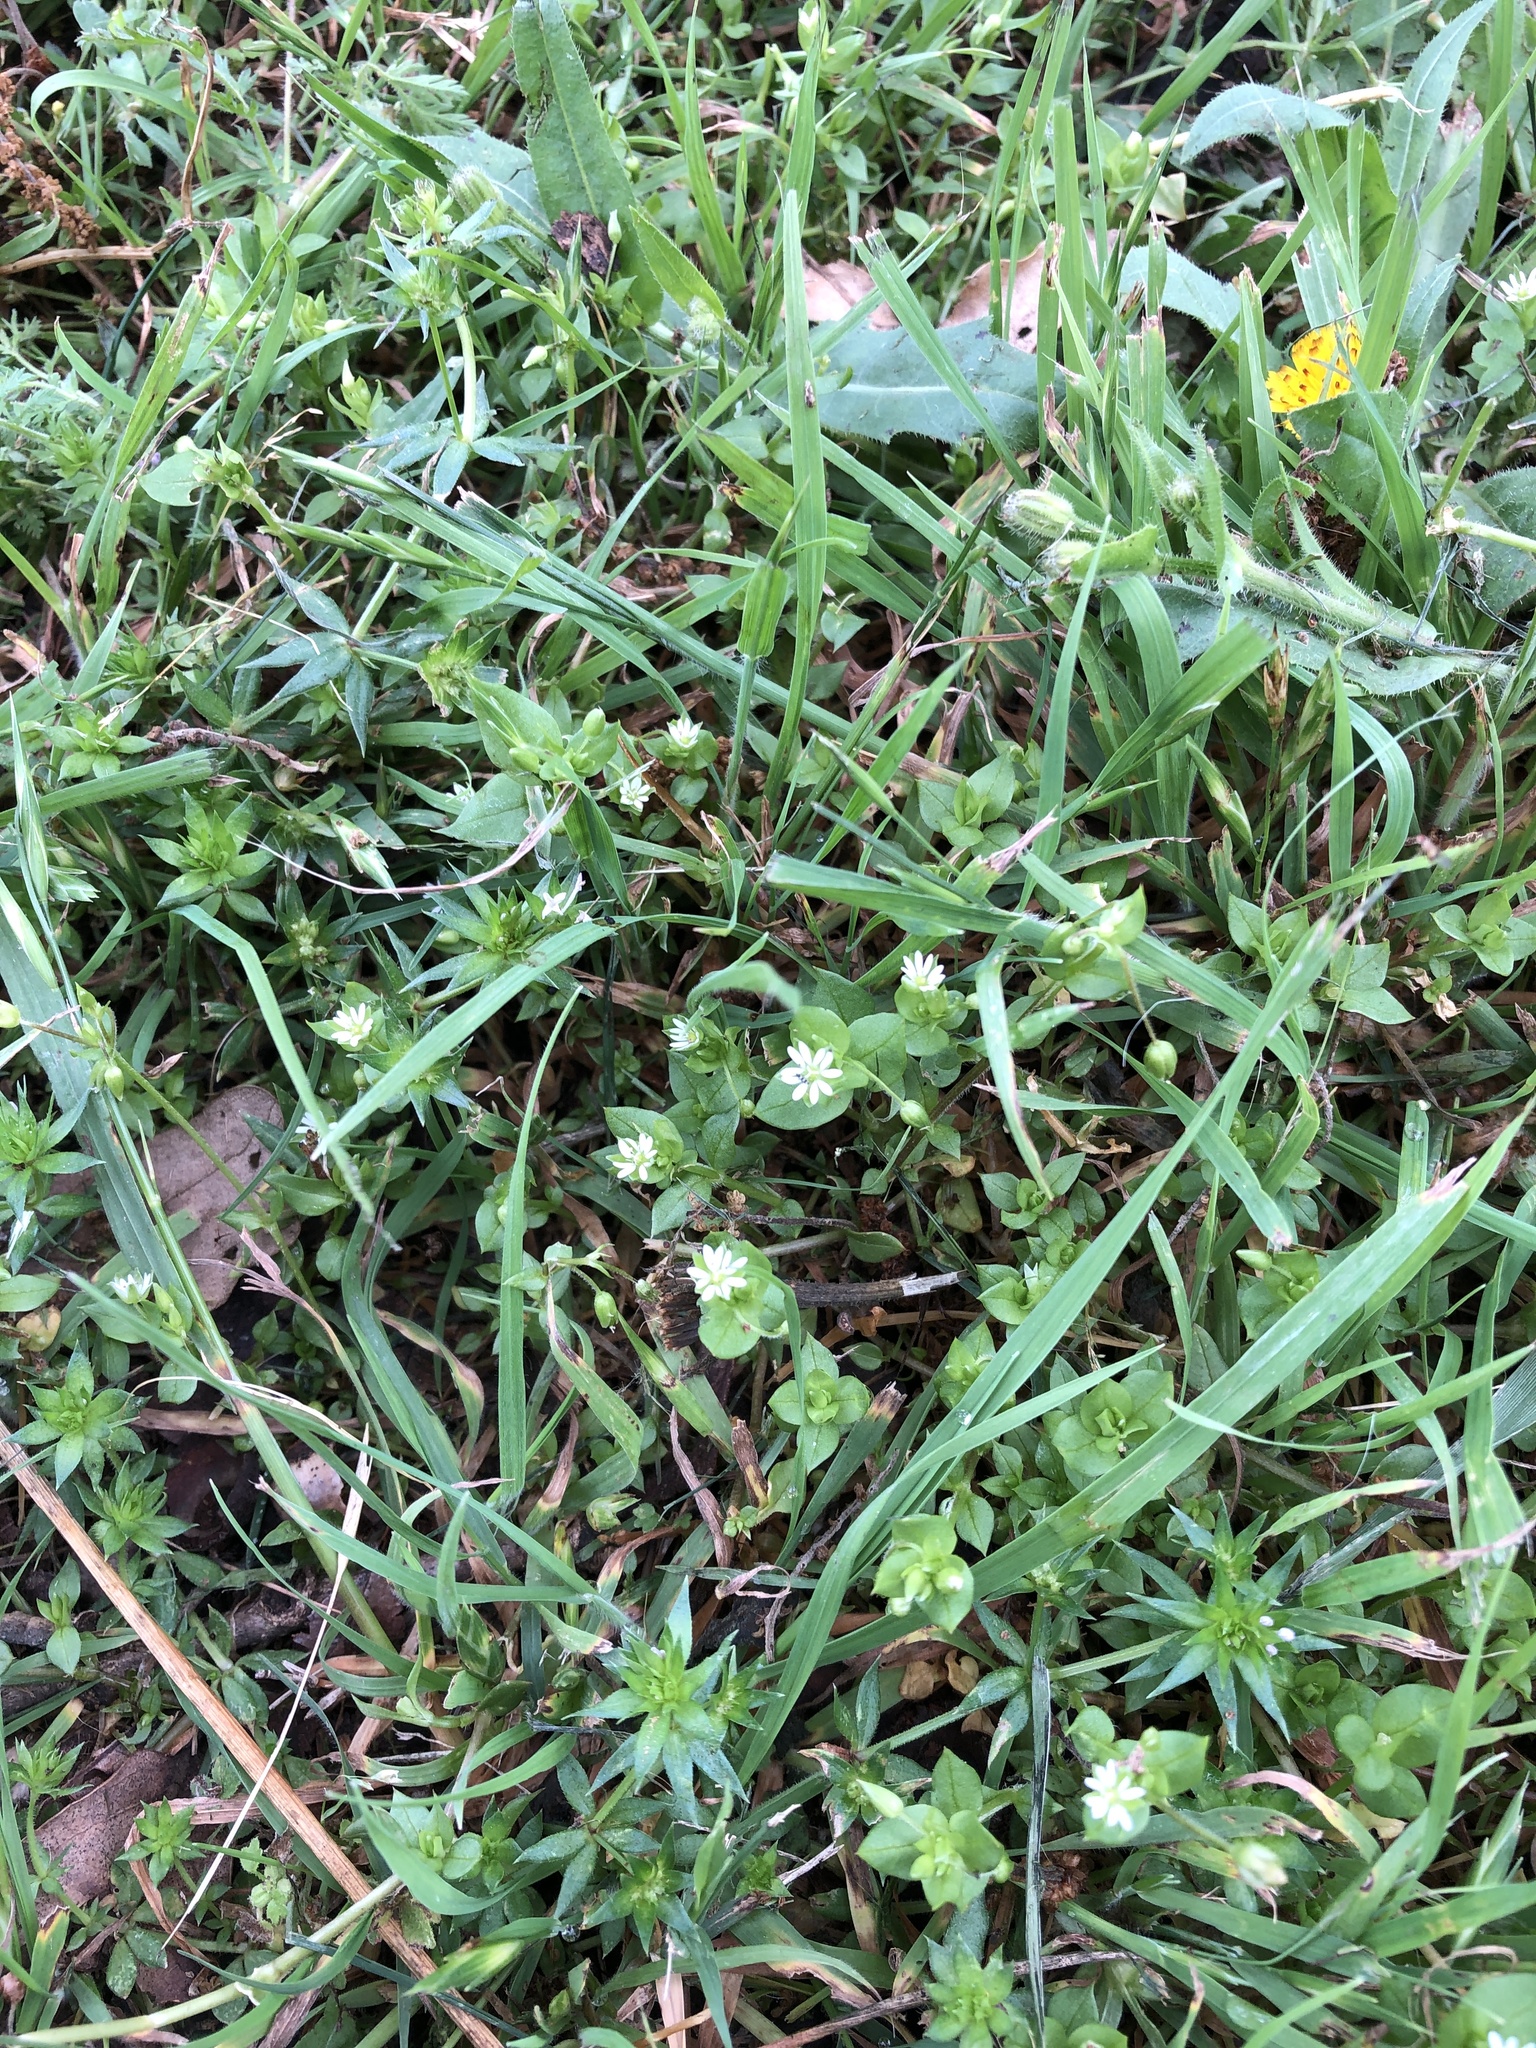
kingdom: Plantae
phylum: Tracheophyta
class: Magnoliopsida
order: Caryophyllales
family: Caryophyllaceae
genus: Stellaria
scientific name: Stellaria media
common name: Common chickweed
